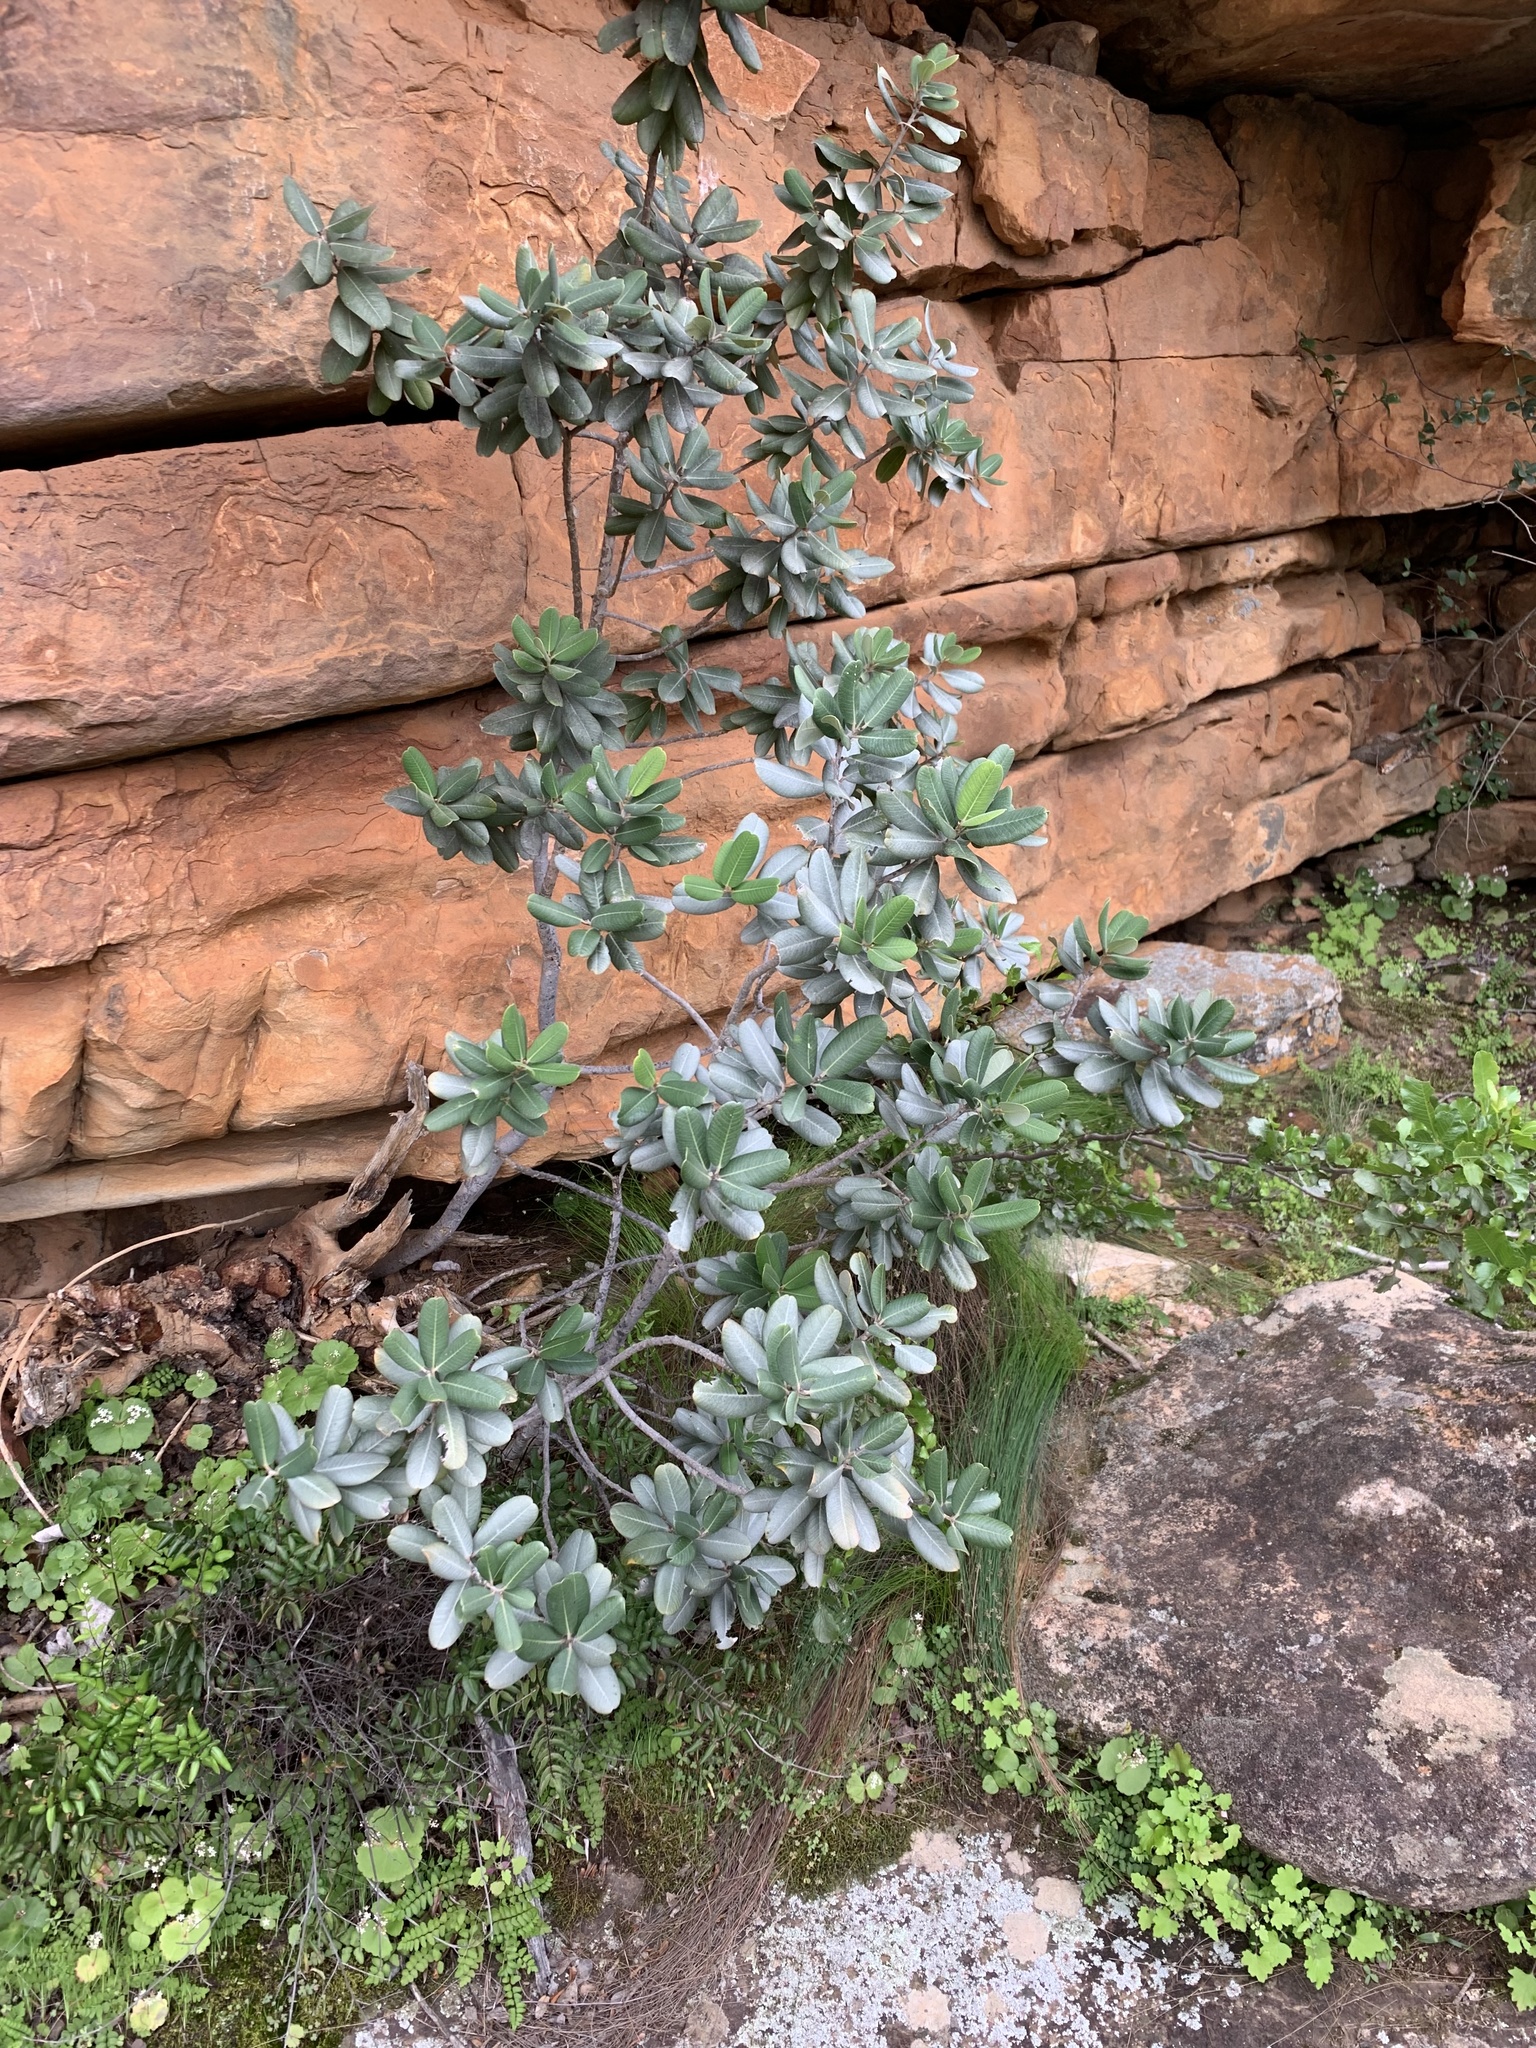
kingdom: Plantae
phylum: Tracheophyta
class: Magnoliopsida
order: Sapindales
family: Anacardiaceae
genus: Heeria
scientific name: Heeria argentea
